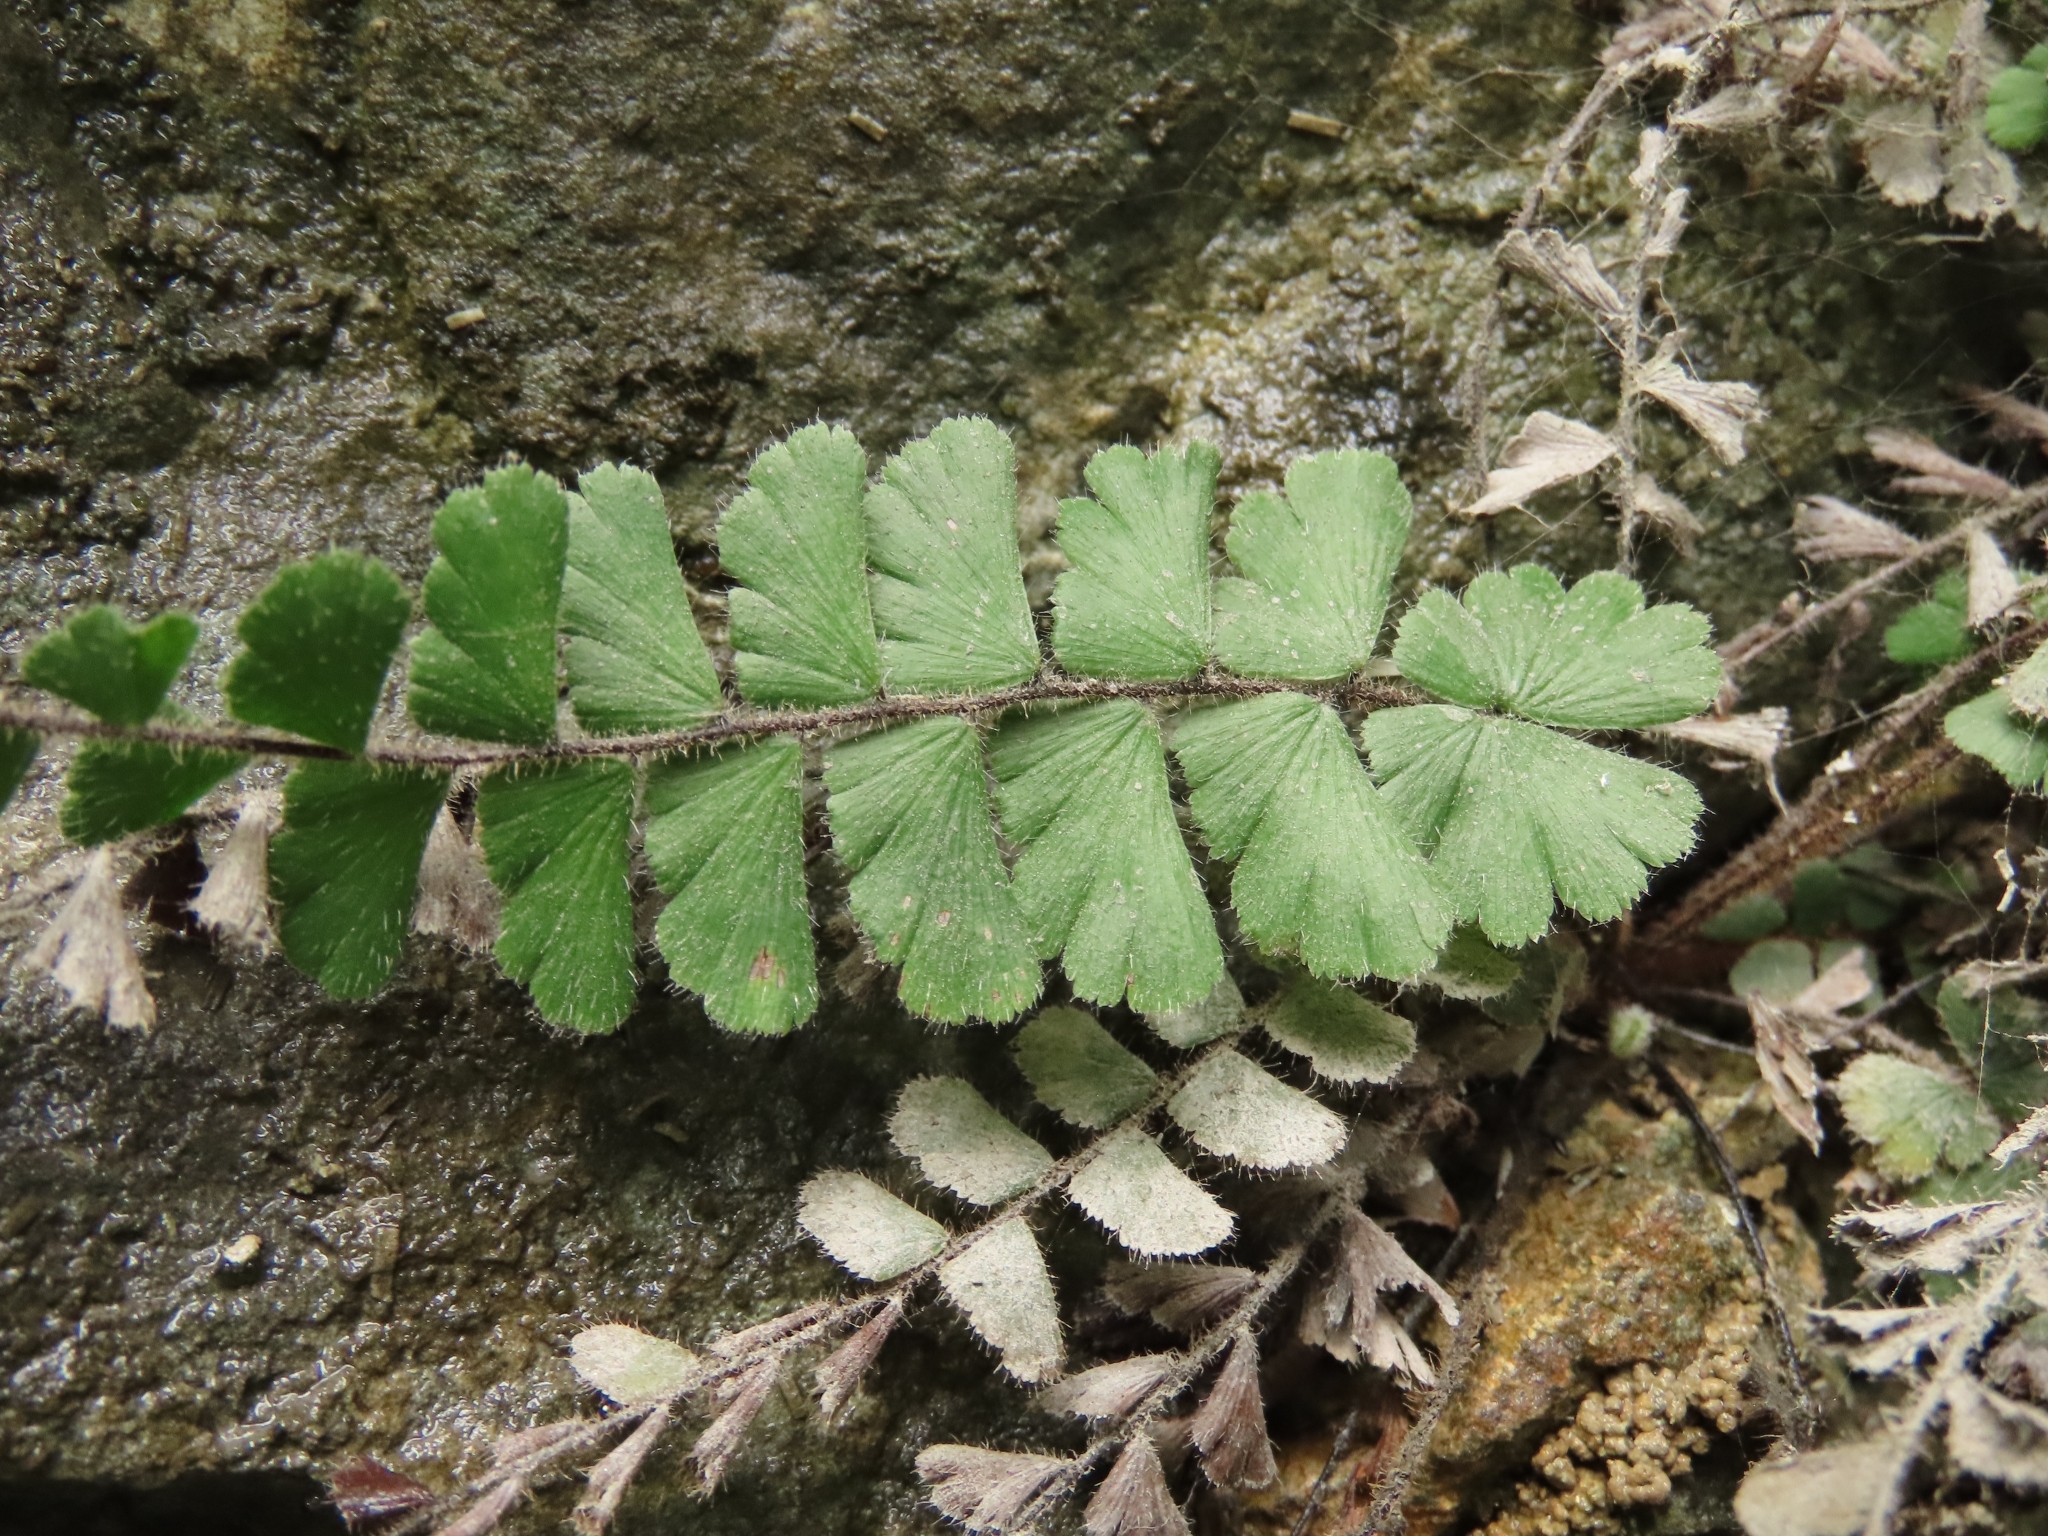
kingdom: Plantae
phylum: Tracheophyta
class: Polypodiopsida
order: Polypodiales
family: Pteridaceae
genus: Adiantum
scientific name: Adiantum ciliatum
